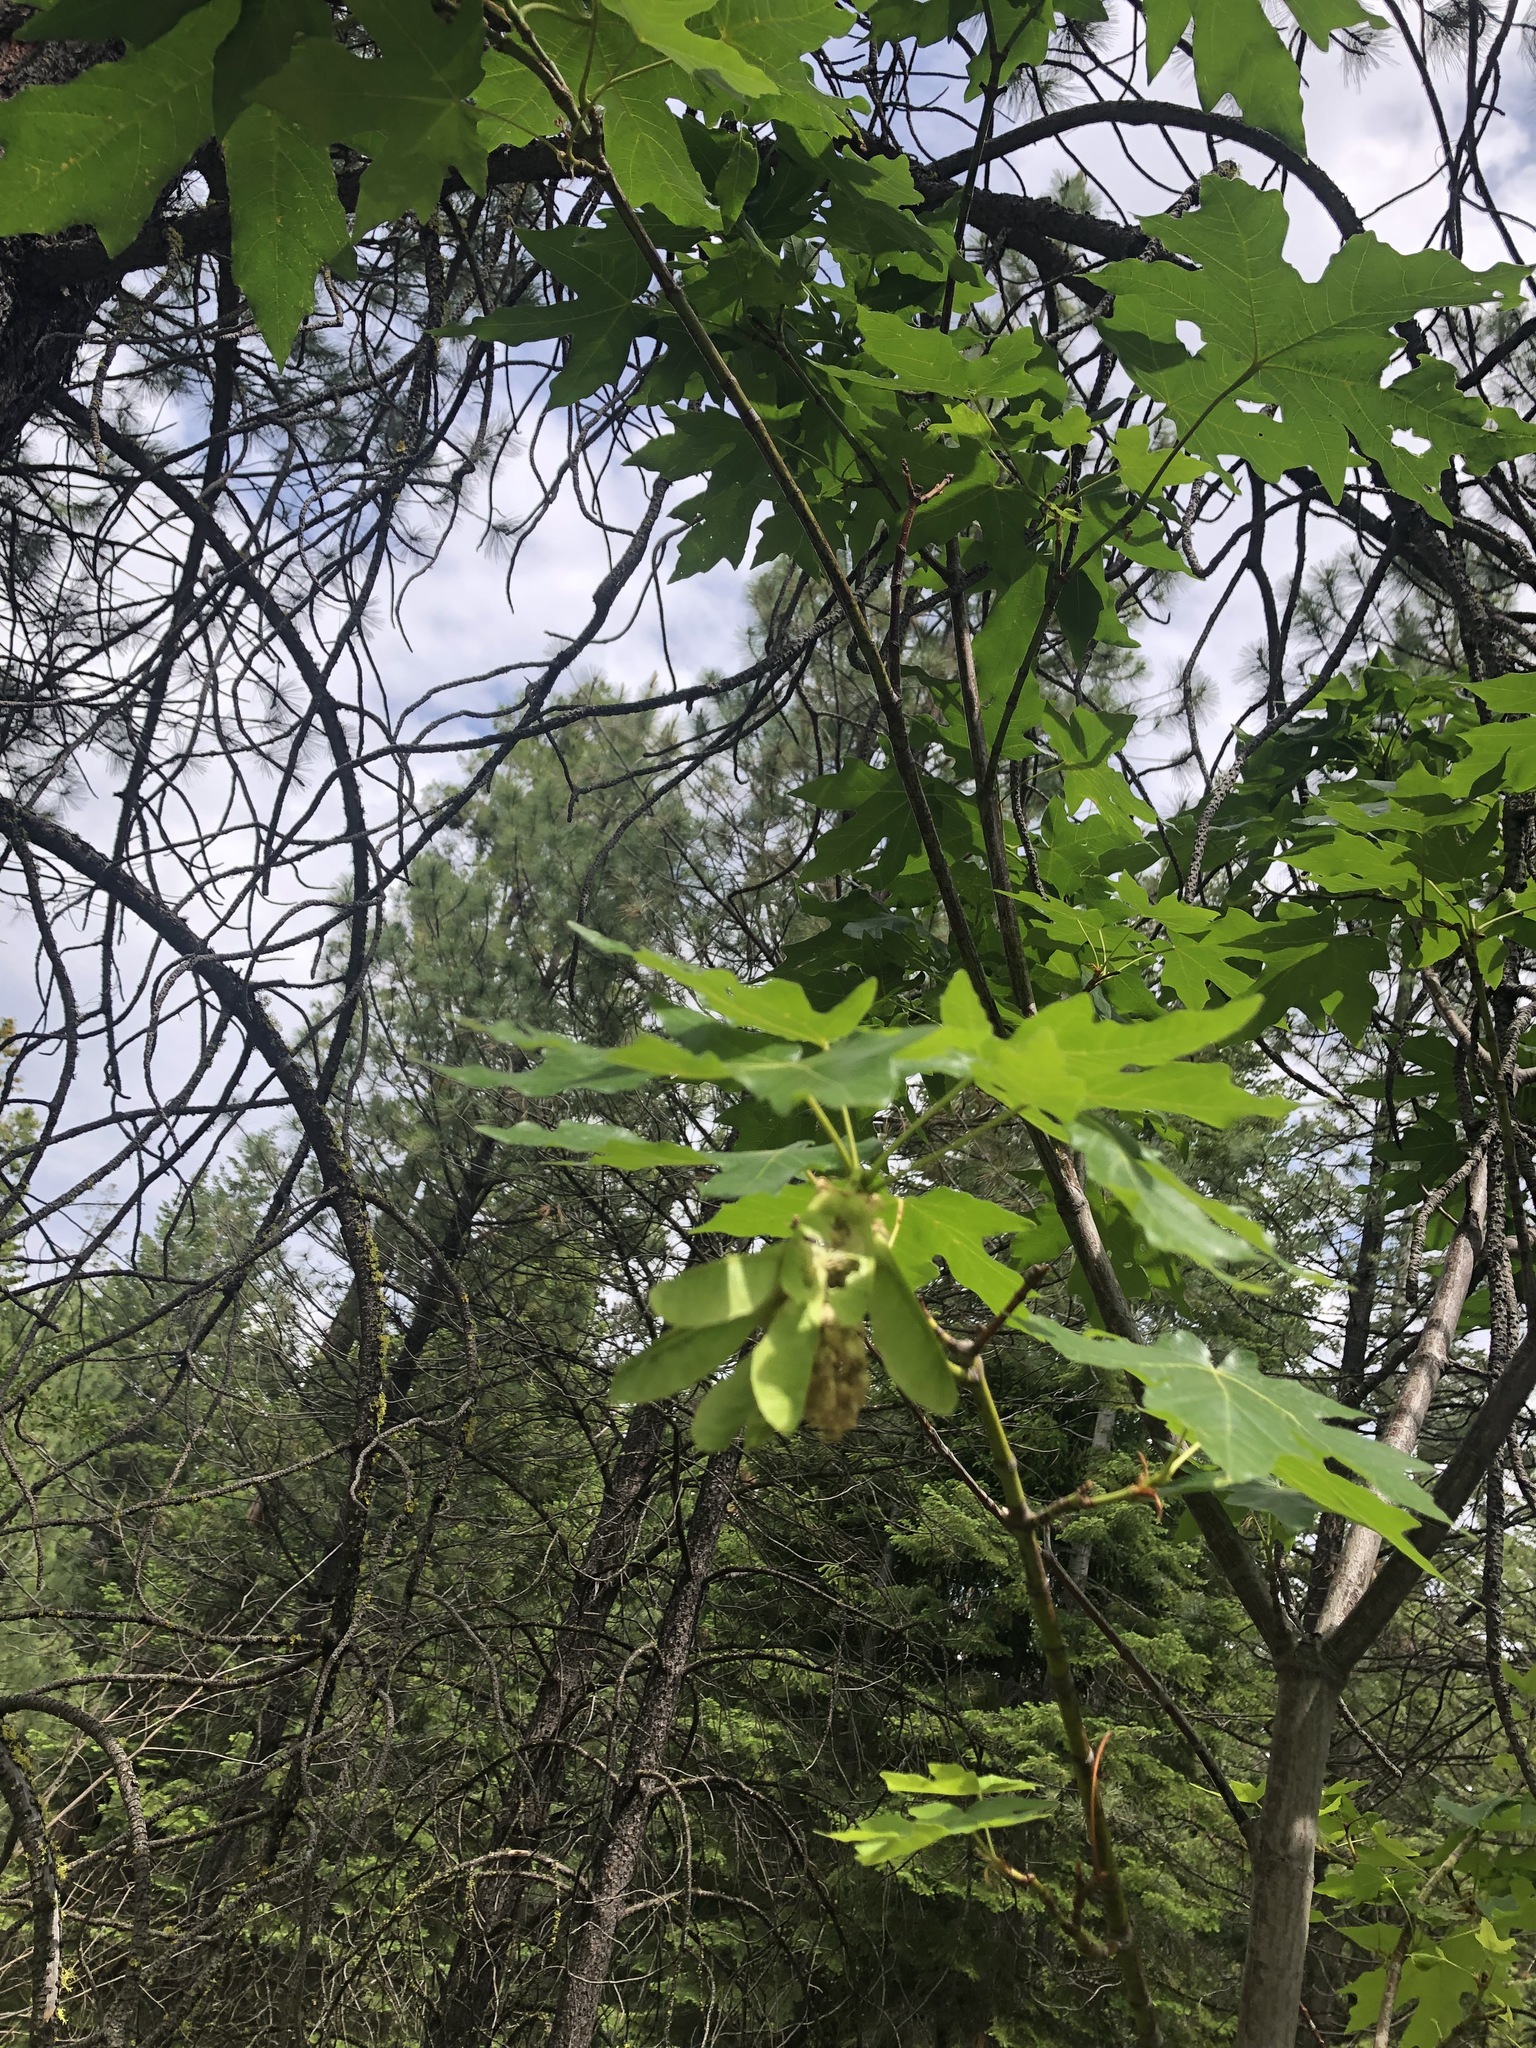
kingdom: Plantae
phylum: Tracheophyta
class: Magnoliopsida
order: Sapindales
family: Sapindaceae
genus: Acer
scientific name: Acer macrophyllum
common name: Oregon maple
